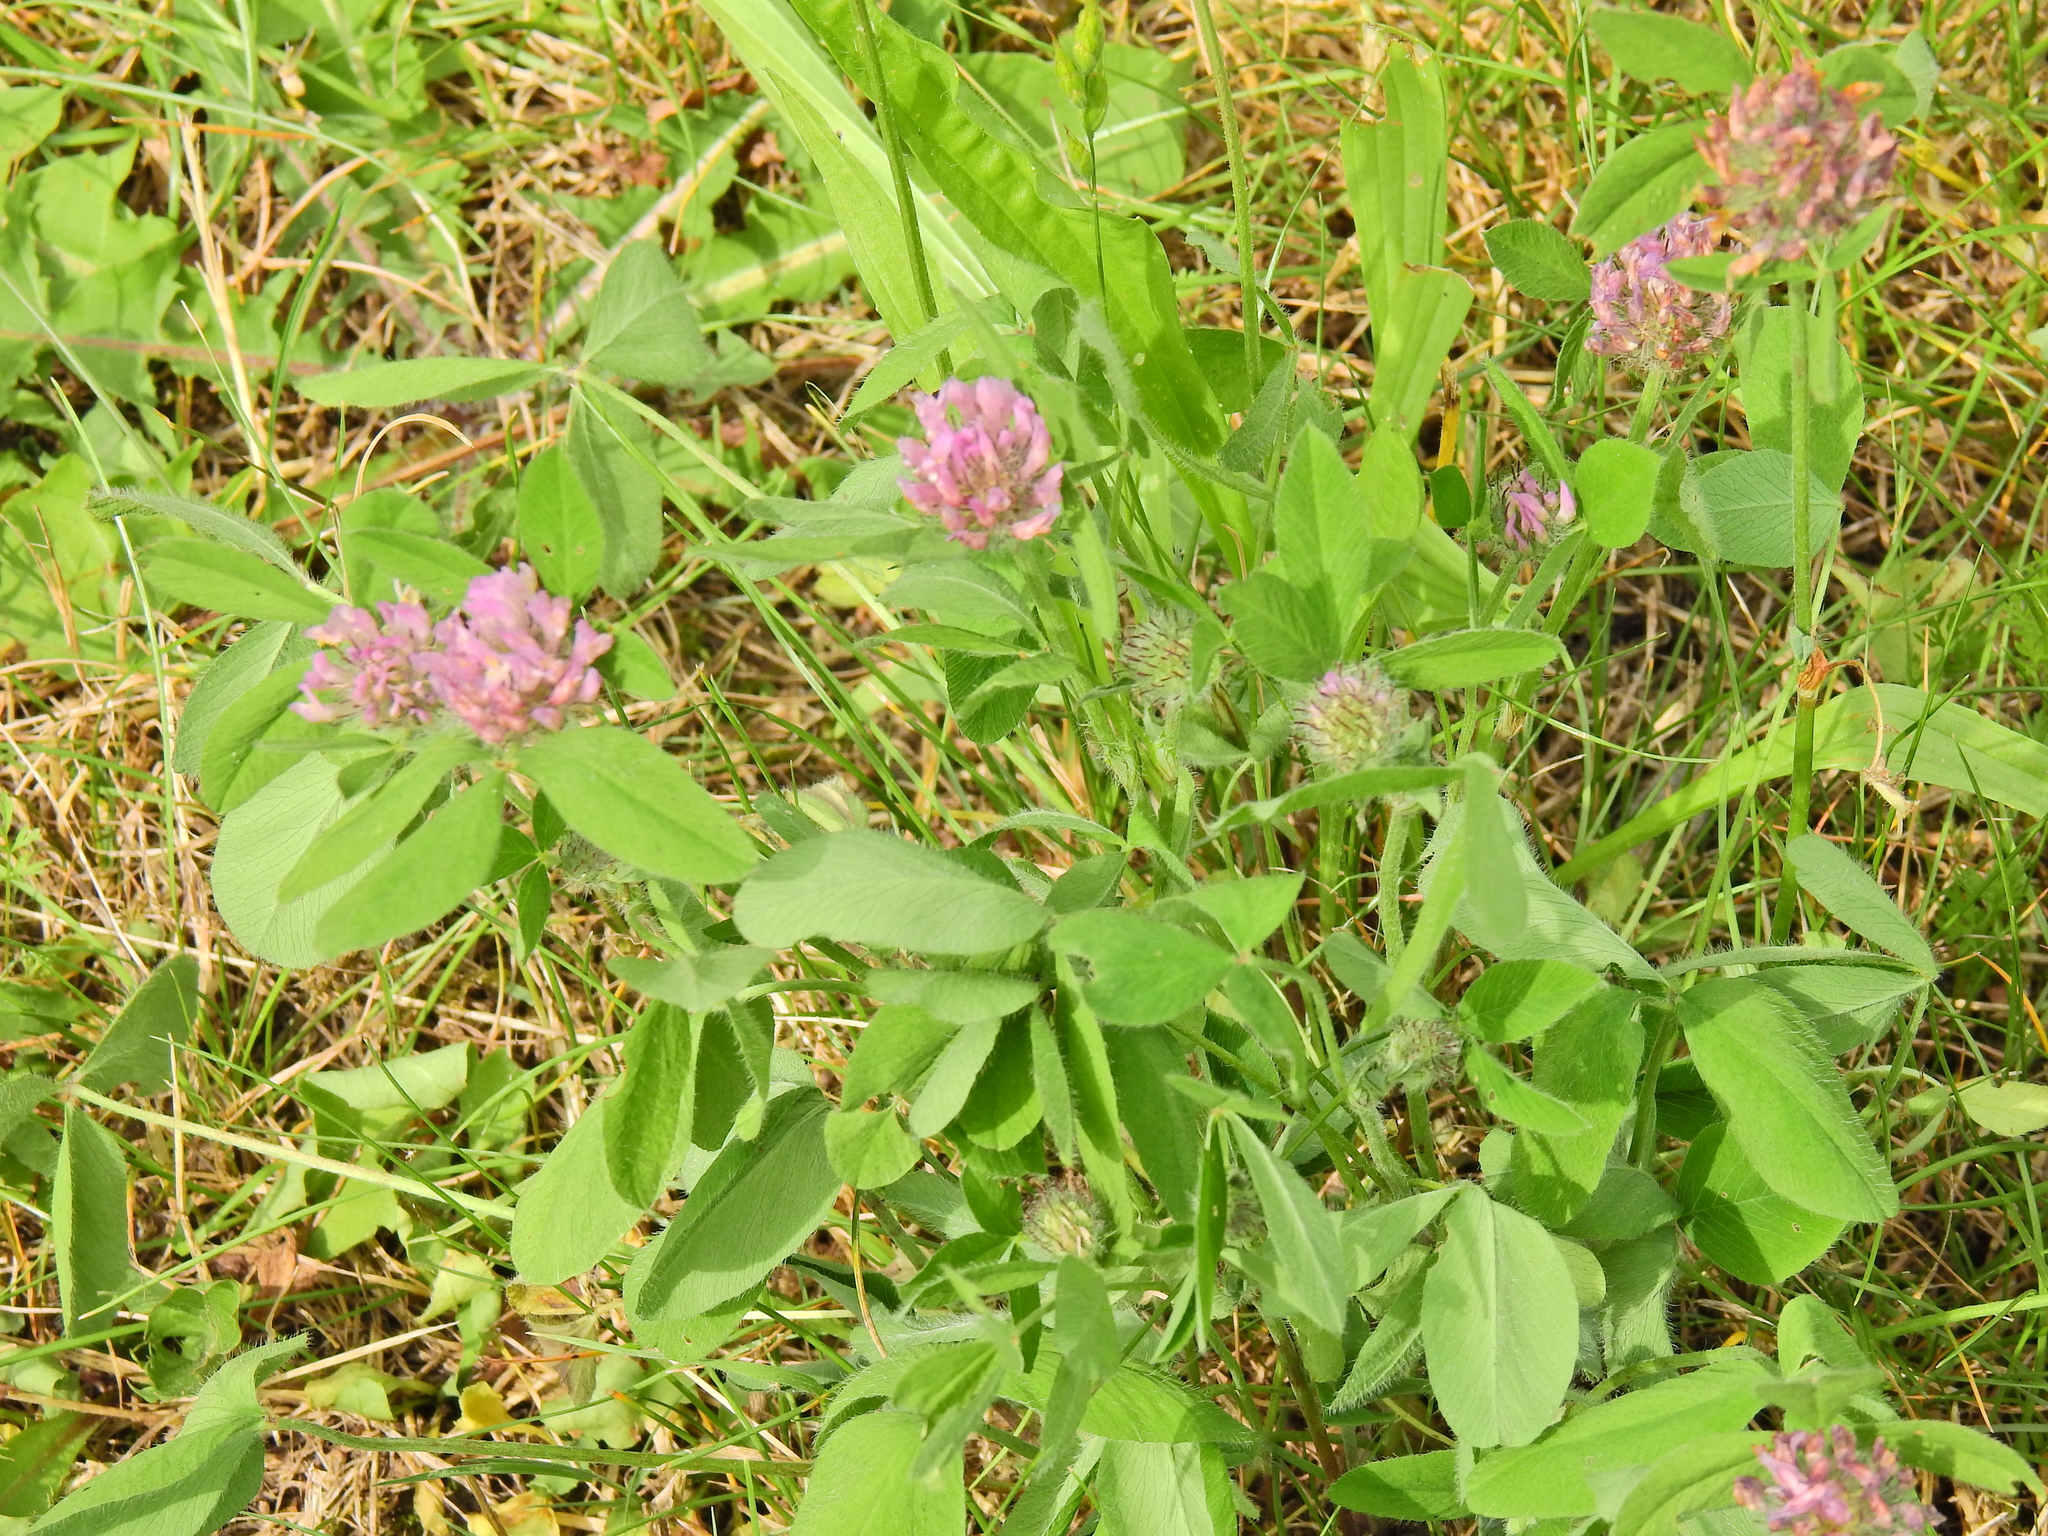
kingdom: Plantae
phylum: Tracheophyta
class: Magnoliopsida
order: Fabales
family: Fabaceae
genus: Trifolium
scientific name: Trifolium pratense
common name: Red clover
